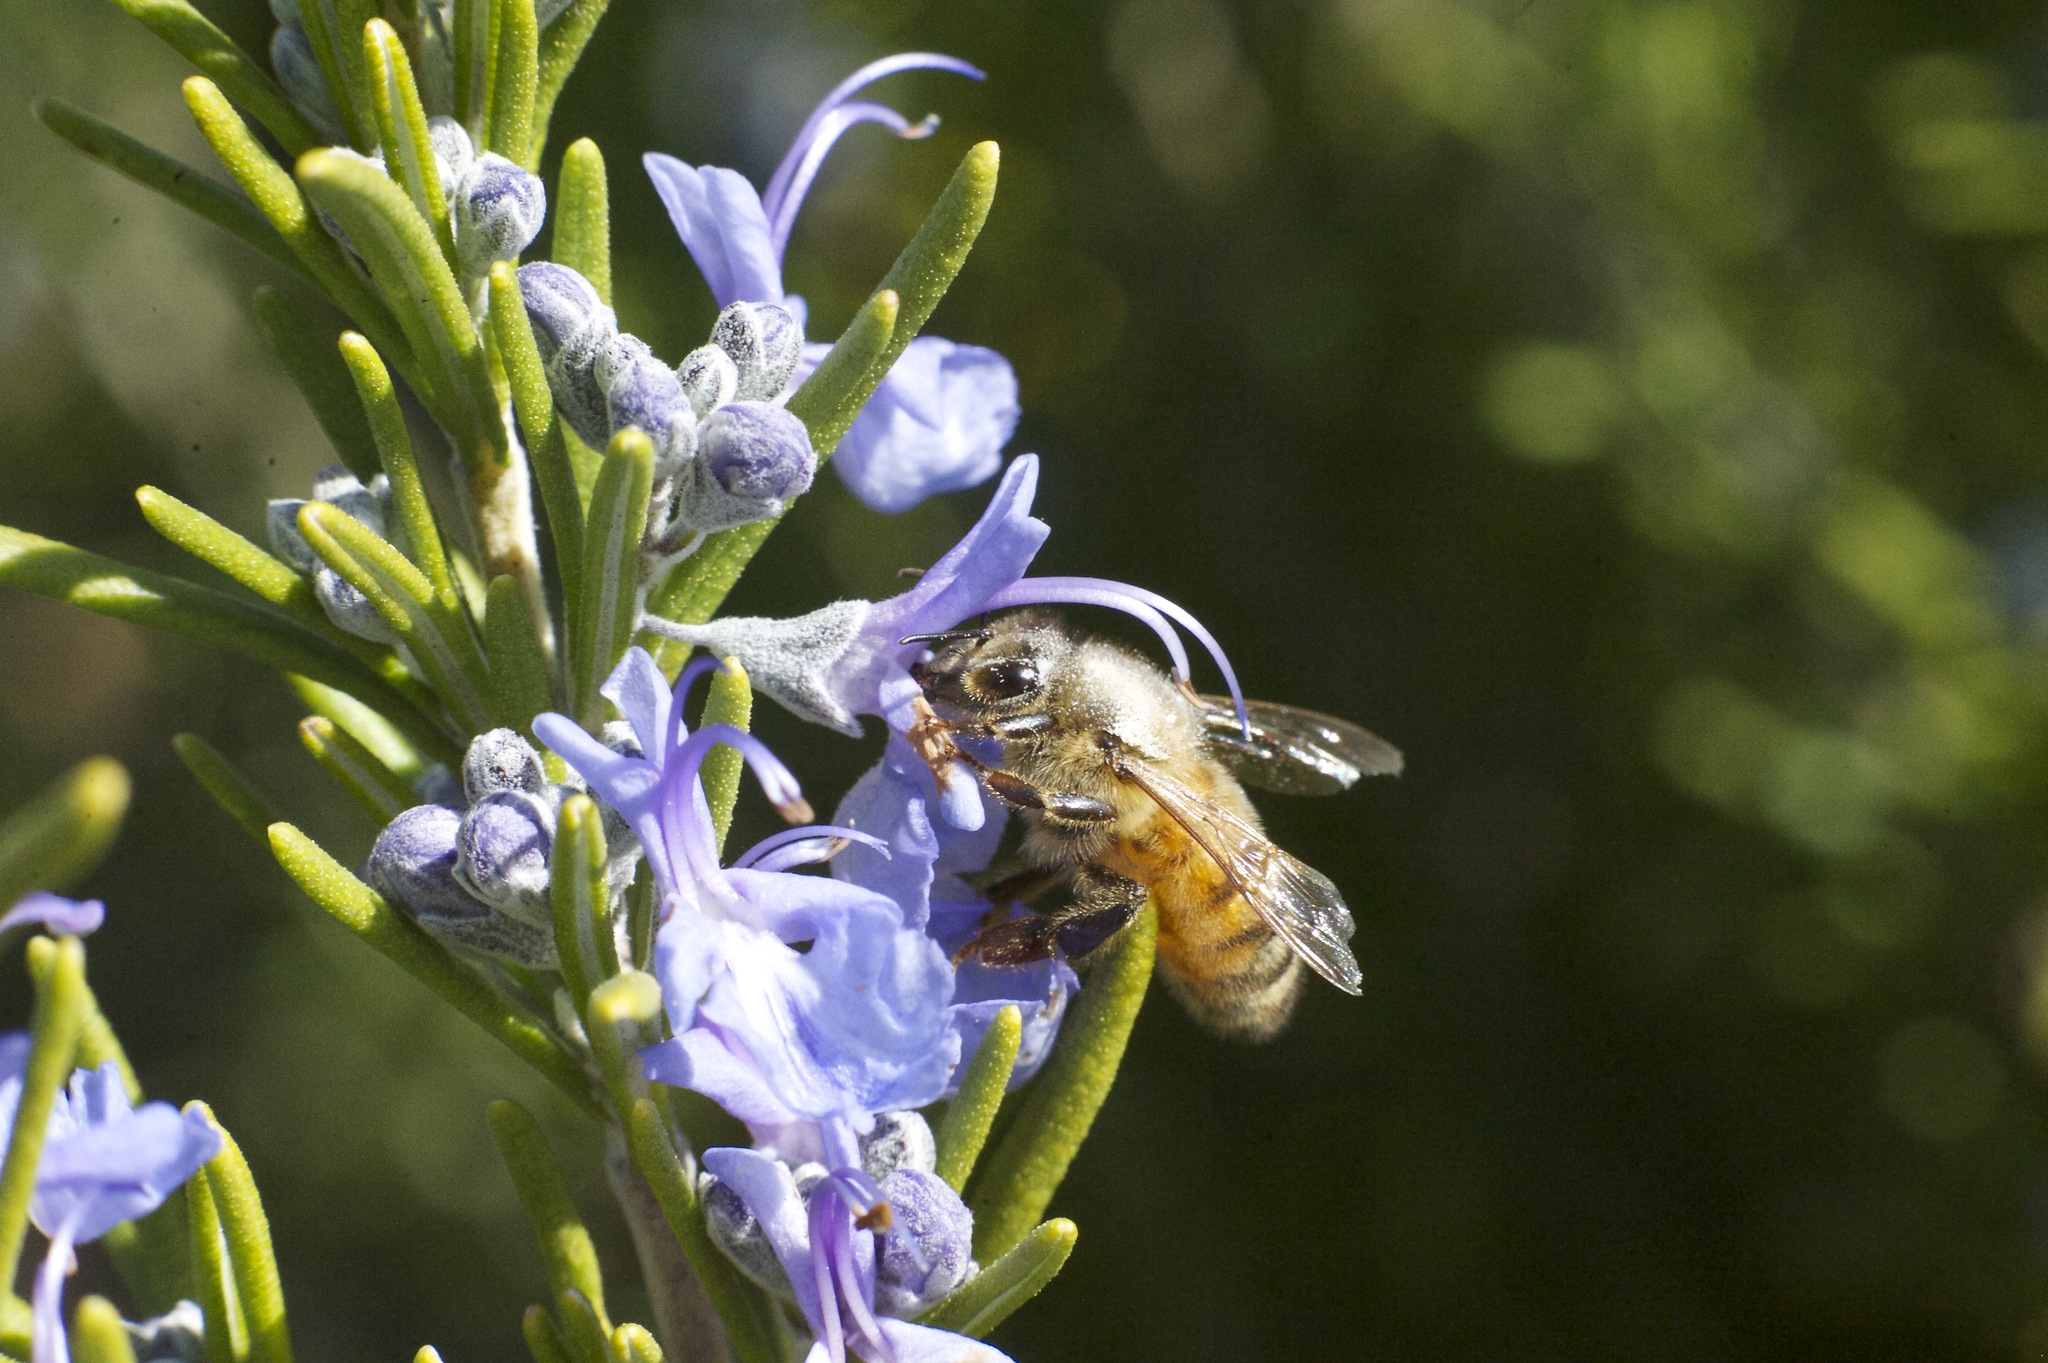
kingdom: Animalia
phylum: Arthropoda
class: Insecta
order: Hymenoptera
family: Apidae
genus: Apis
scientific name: Apis mellifera
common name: Honey bee
